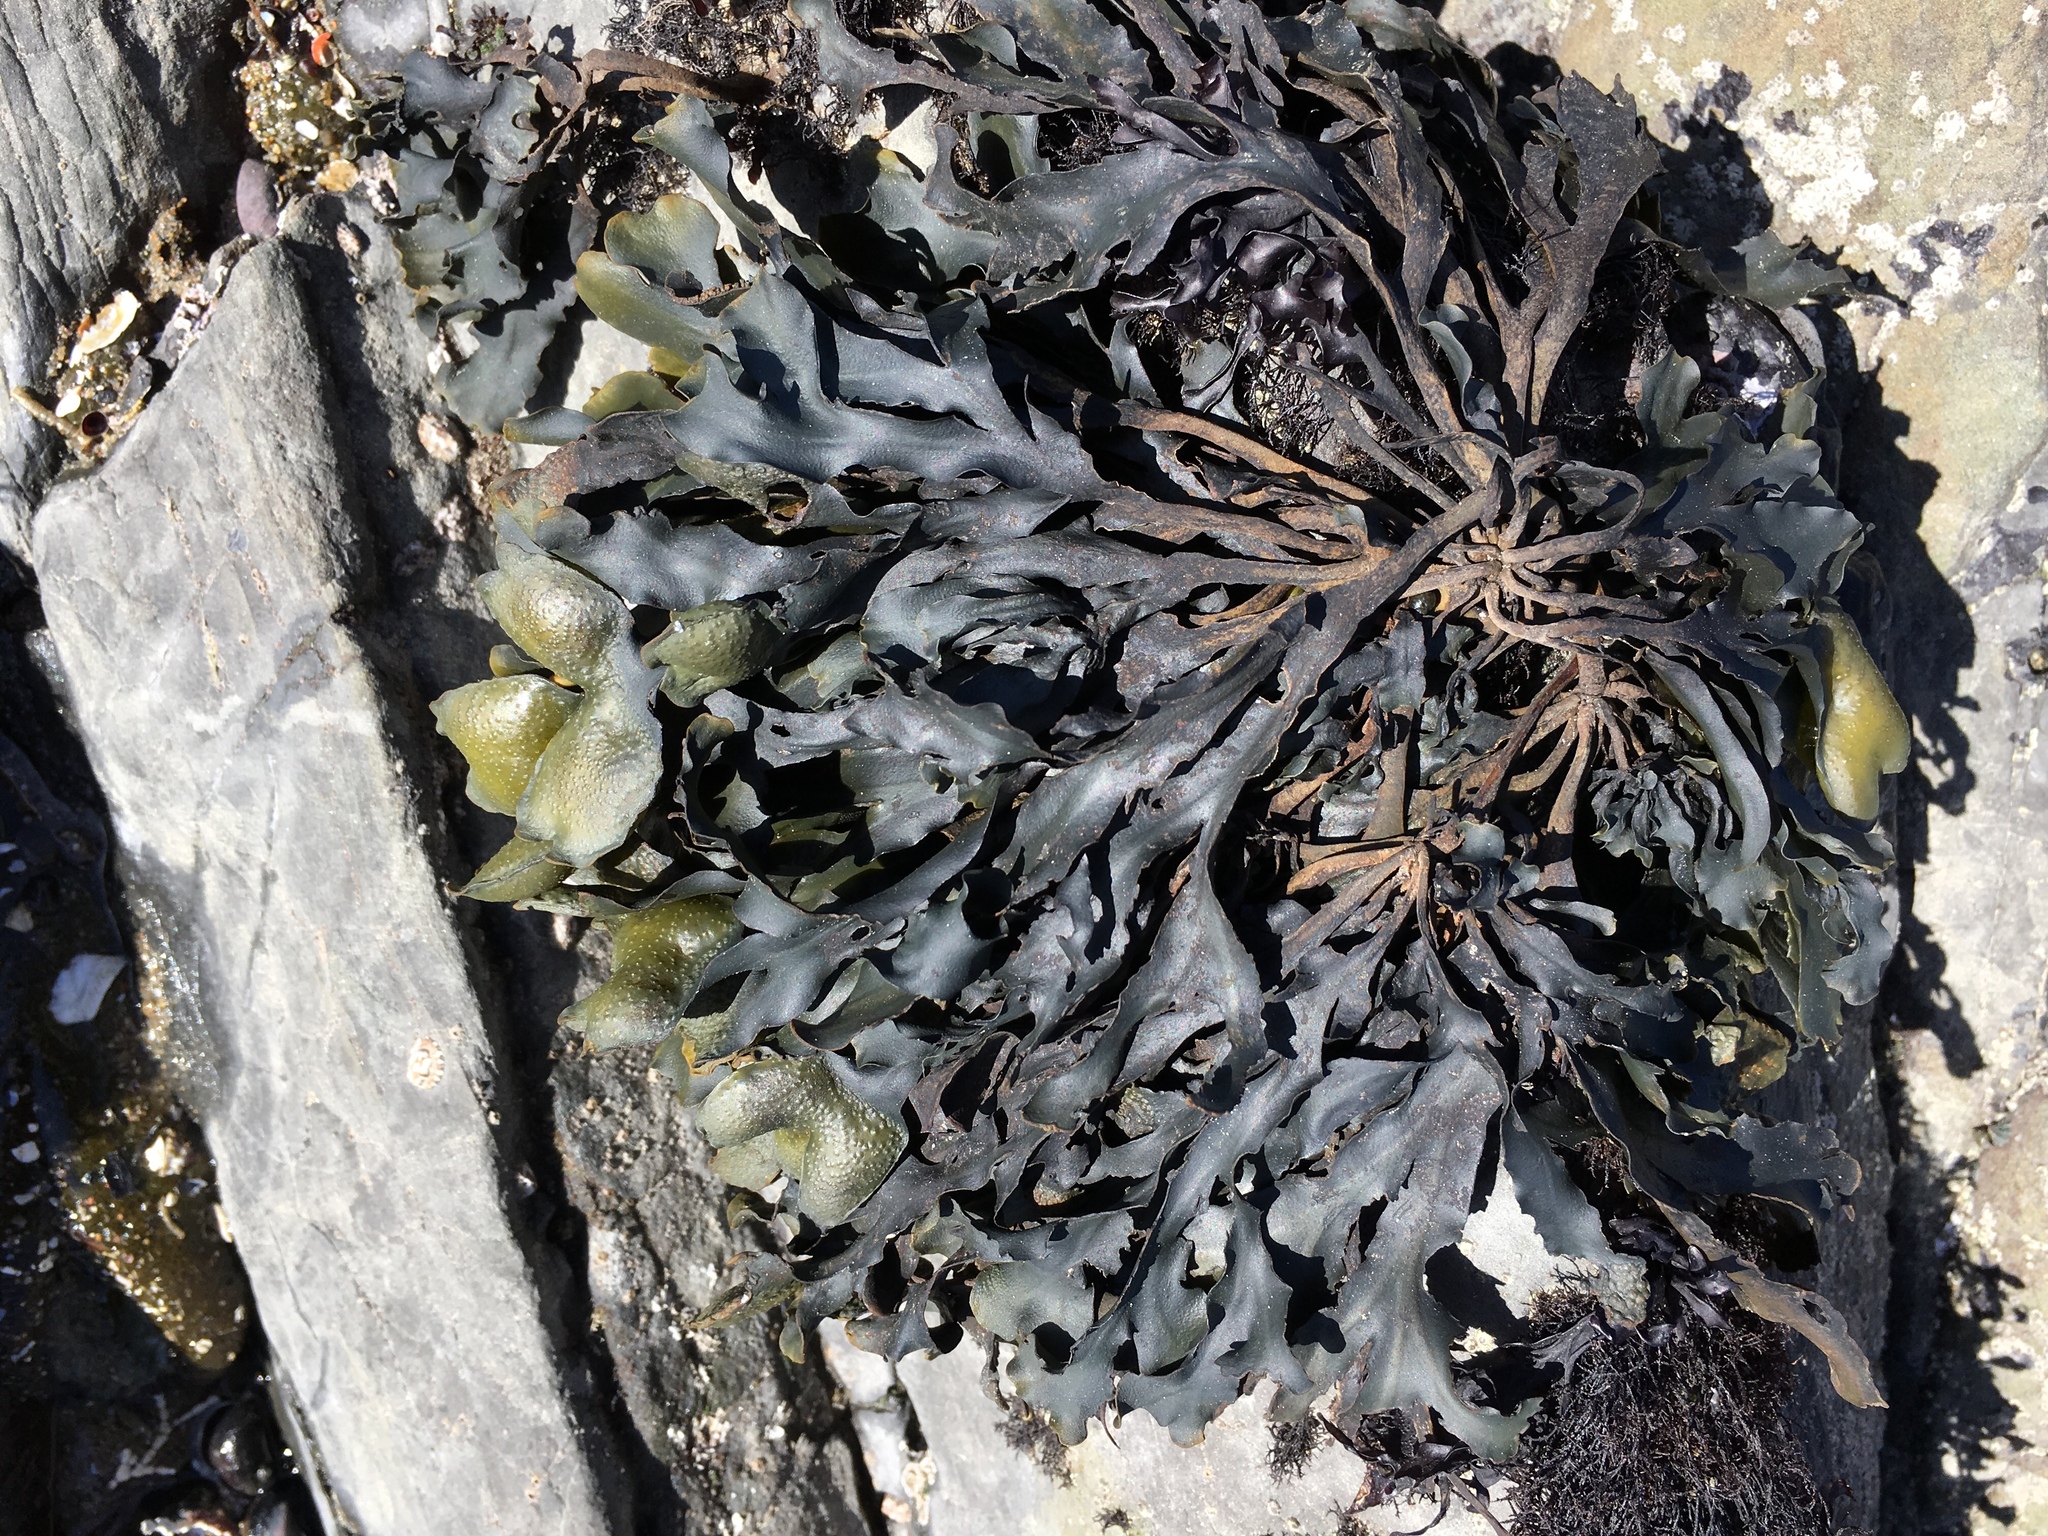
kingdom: Chromista
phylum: Ochrophyta
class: Phaeophyceae
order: Fucales
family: Fucaceae
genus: Fucus
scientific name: Fucus distichus
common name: Rockweed
